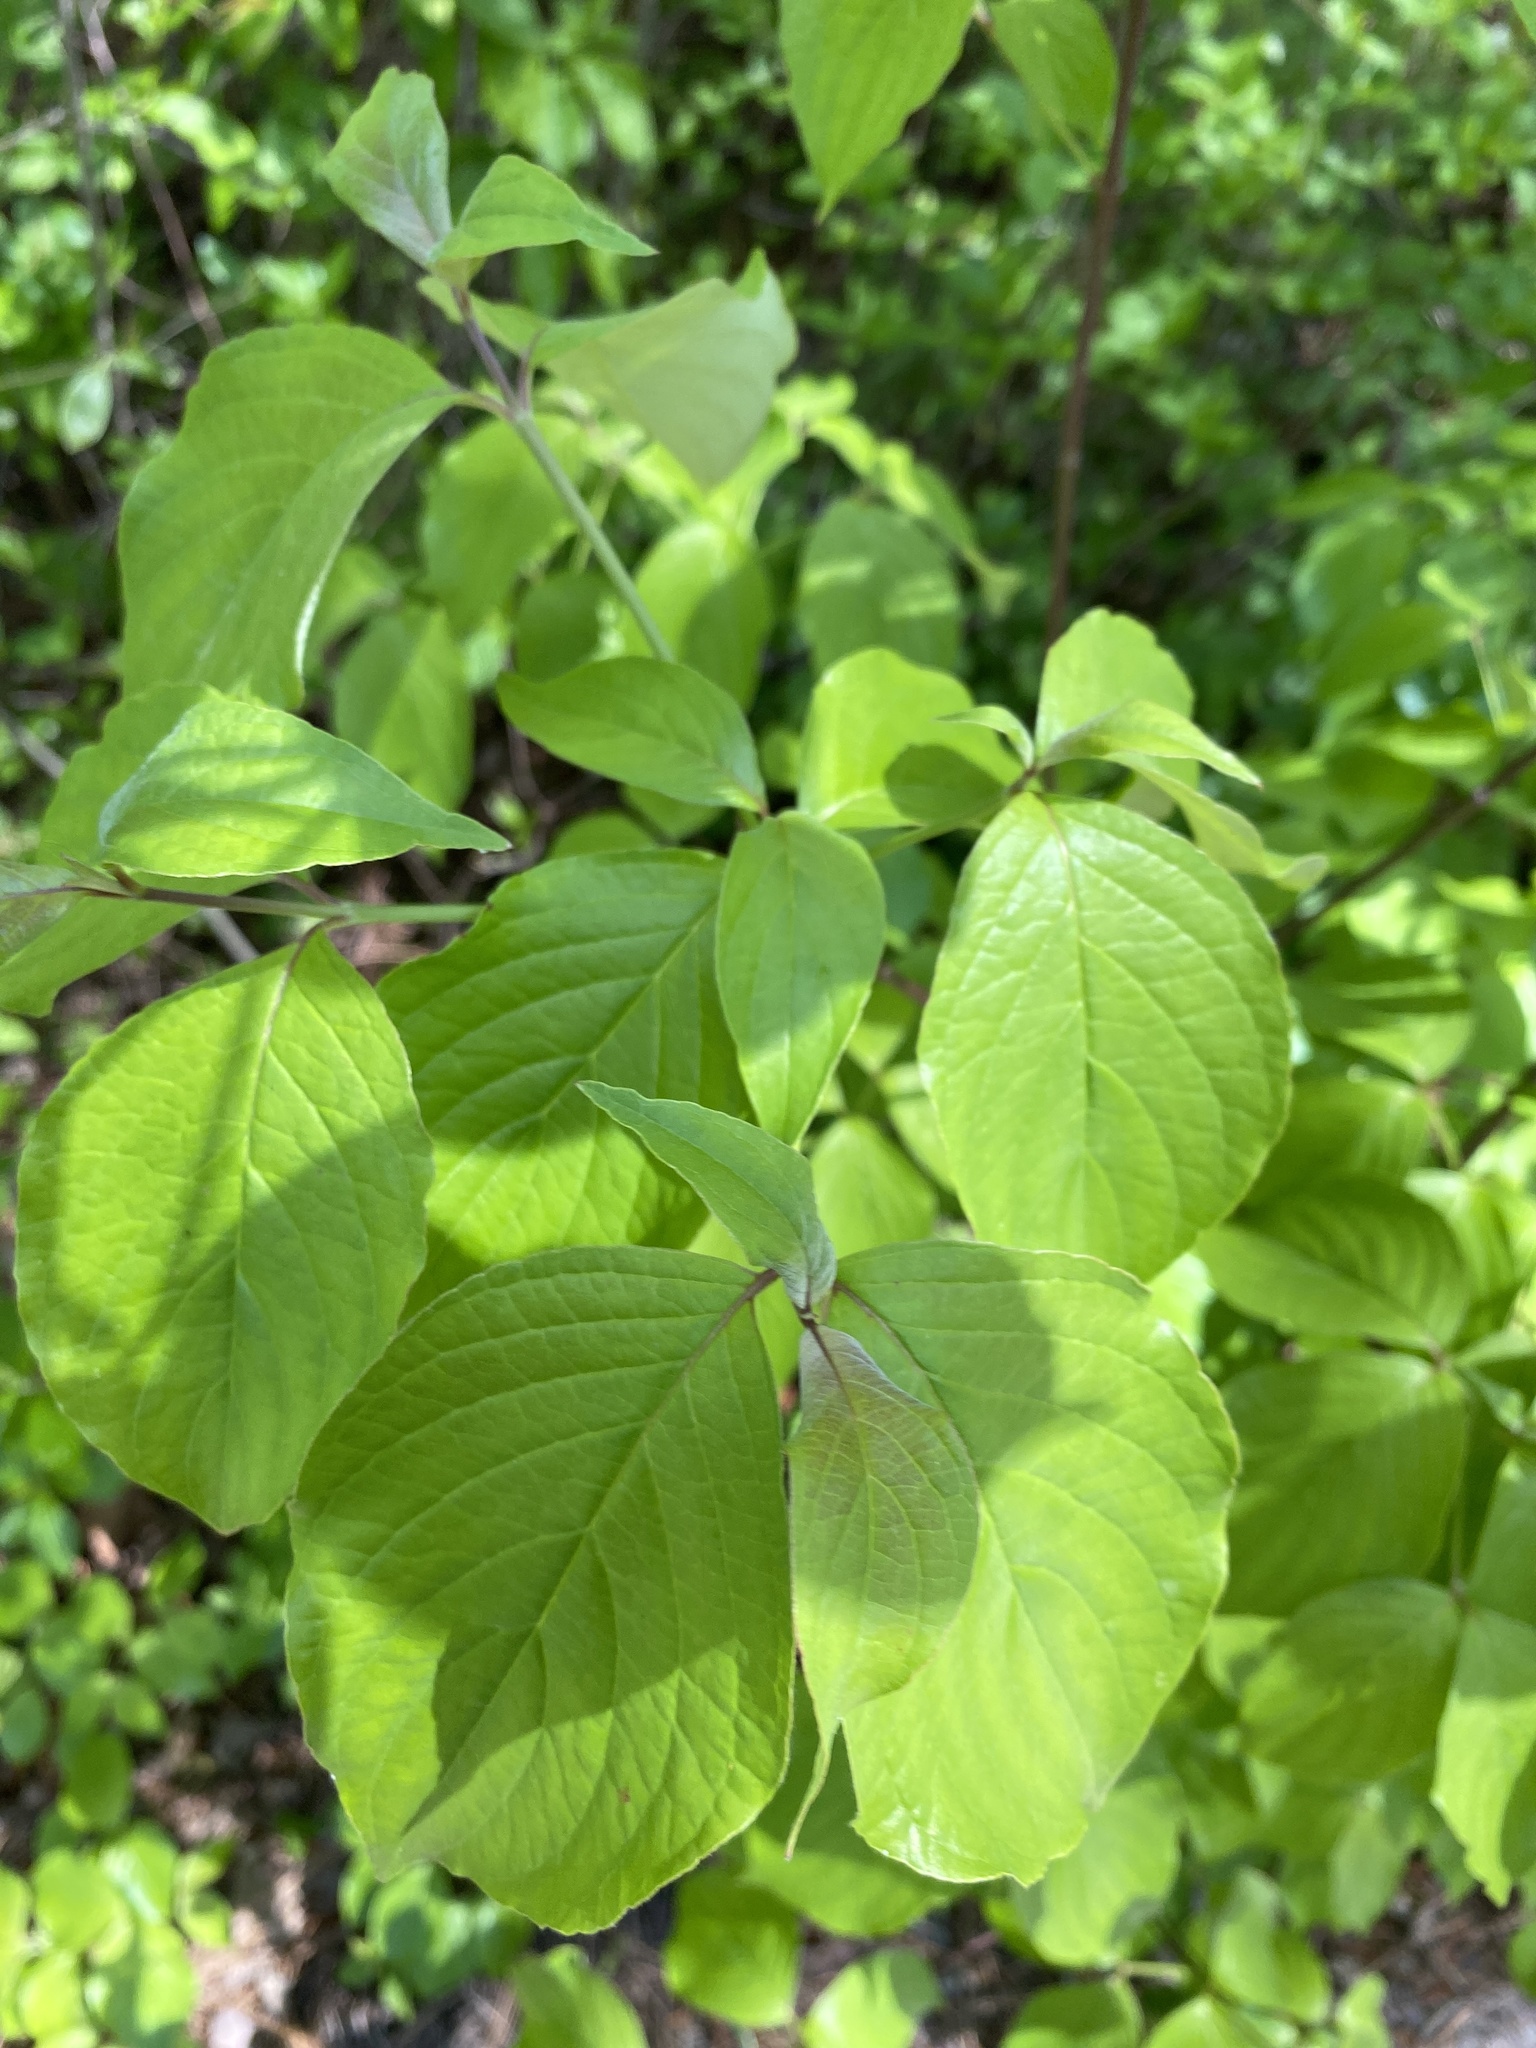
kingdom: Plantae
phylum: Tracheophyta
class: Magnoliopsida
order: Cornales
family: Cornaceae
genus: Cornus
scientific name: Cornus florida
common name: Flowering dogwood
